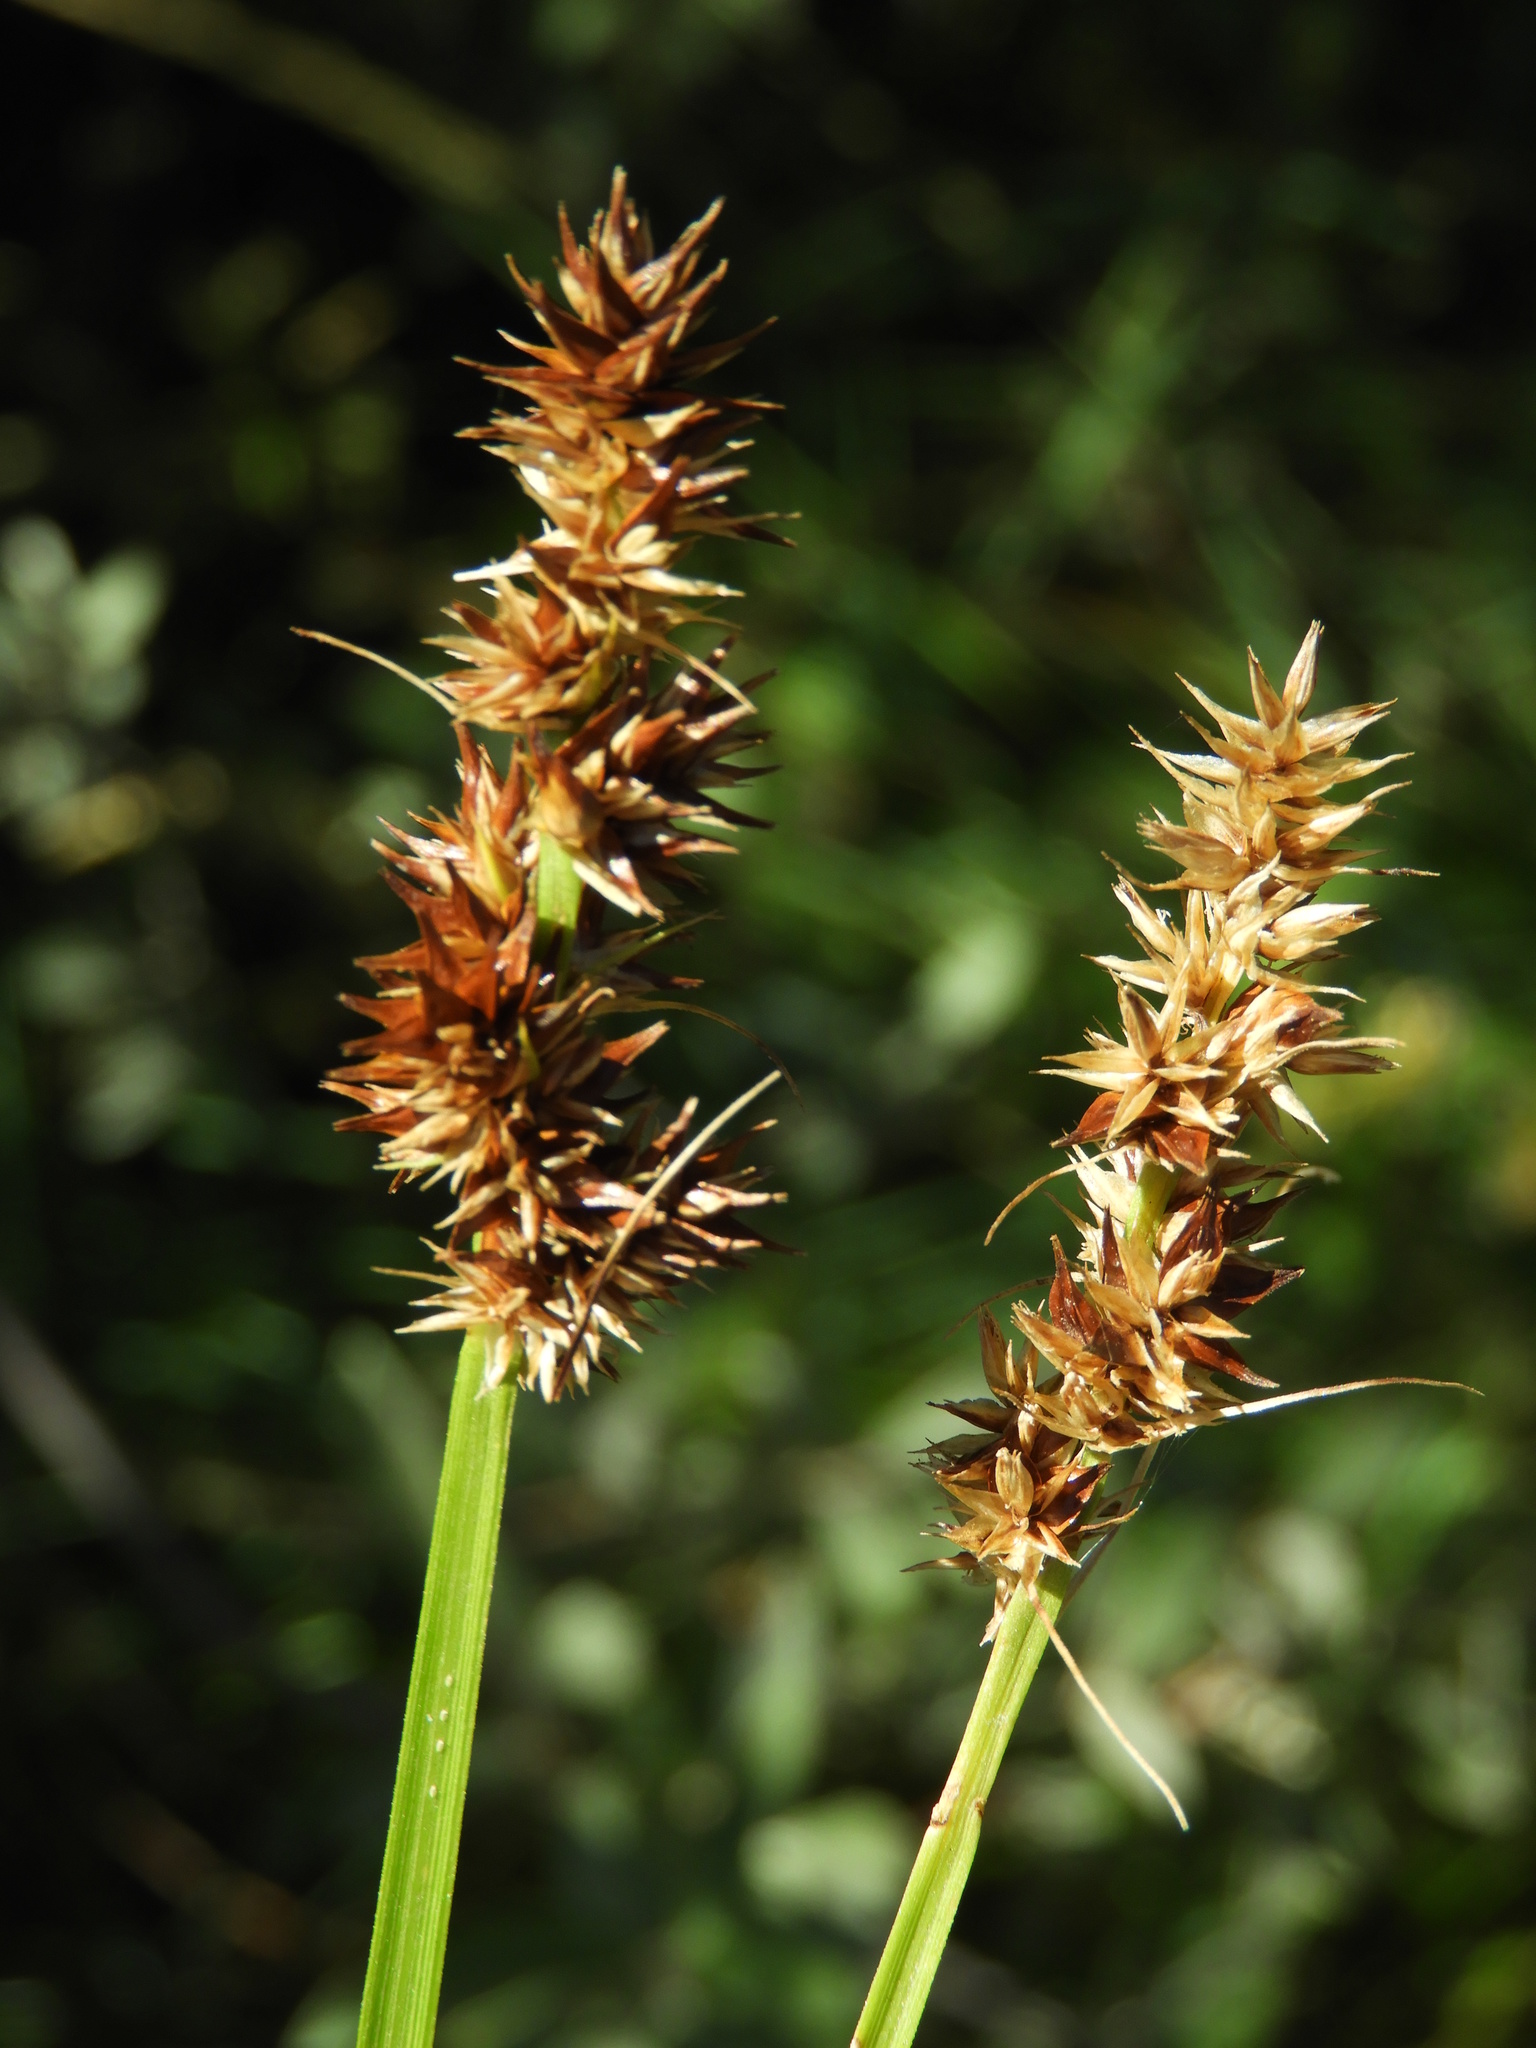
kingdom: Plantae
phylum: Tracheophyta
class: Liliopsida
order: Poales
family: Cyperaceae
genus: Carex
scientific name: Carex otrubae
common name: False fox-sedge
